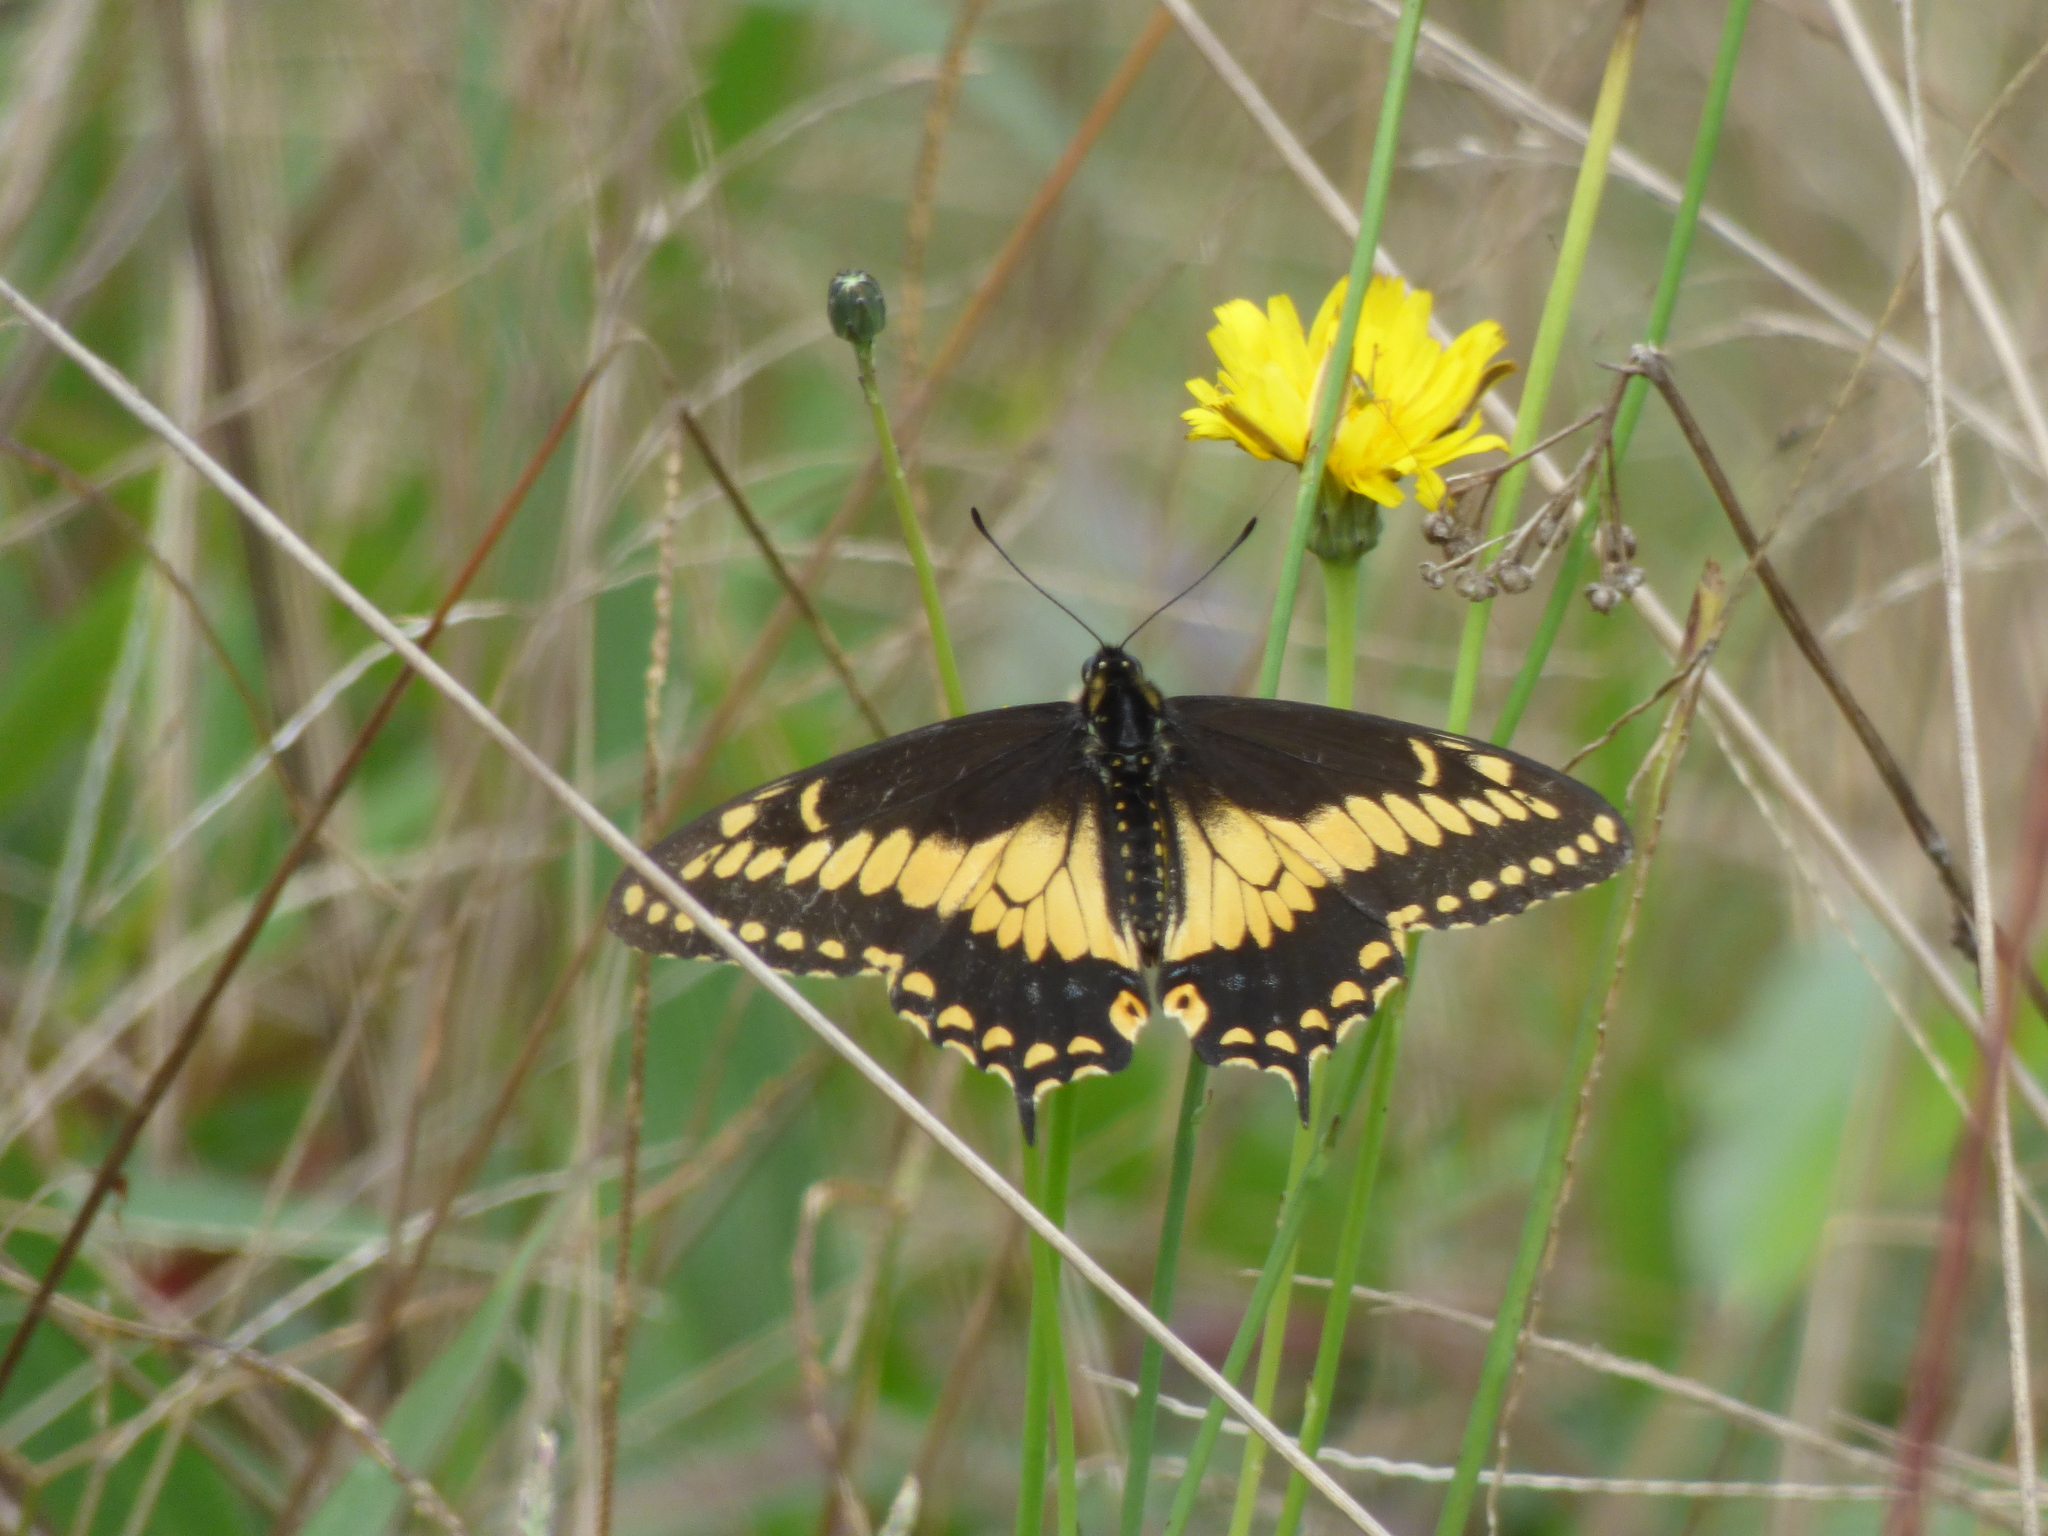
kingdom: Animalia
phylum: Arthropoda
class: Insecta
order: Lepidoptera
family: Papilionidae
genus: Papilio
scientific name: Papilio polyxenes
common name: Black swallowtail
